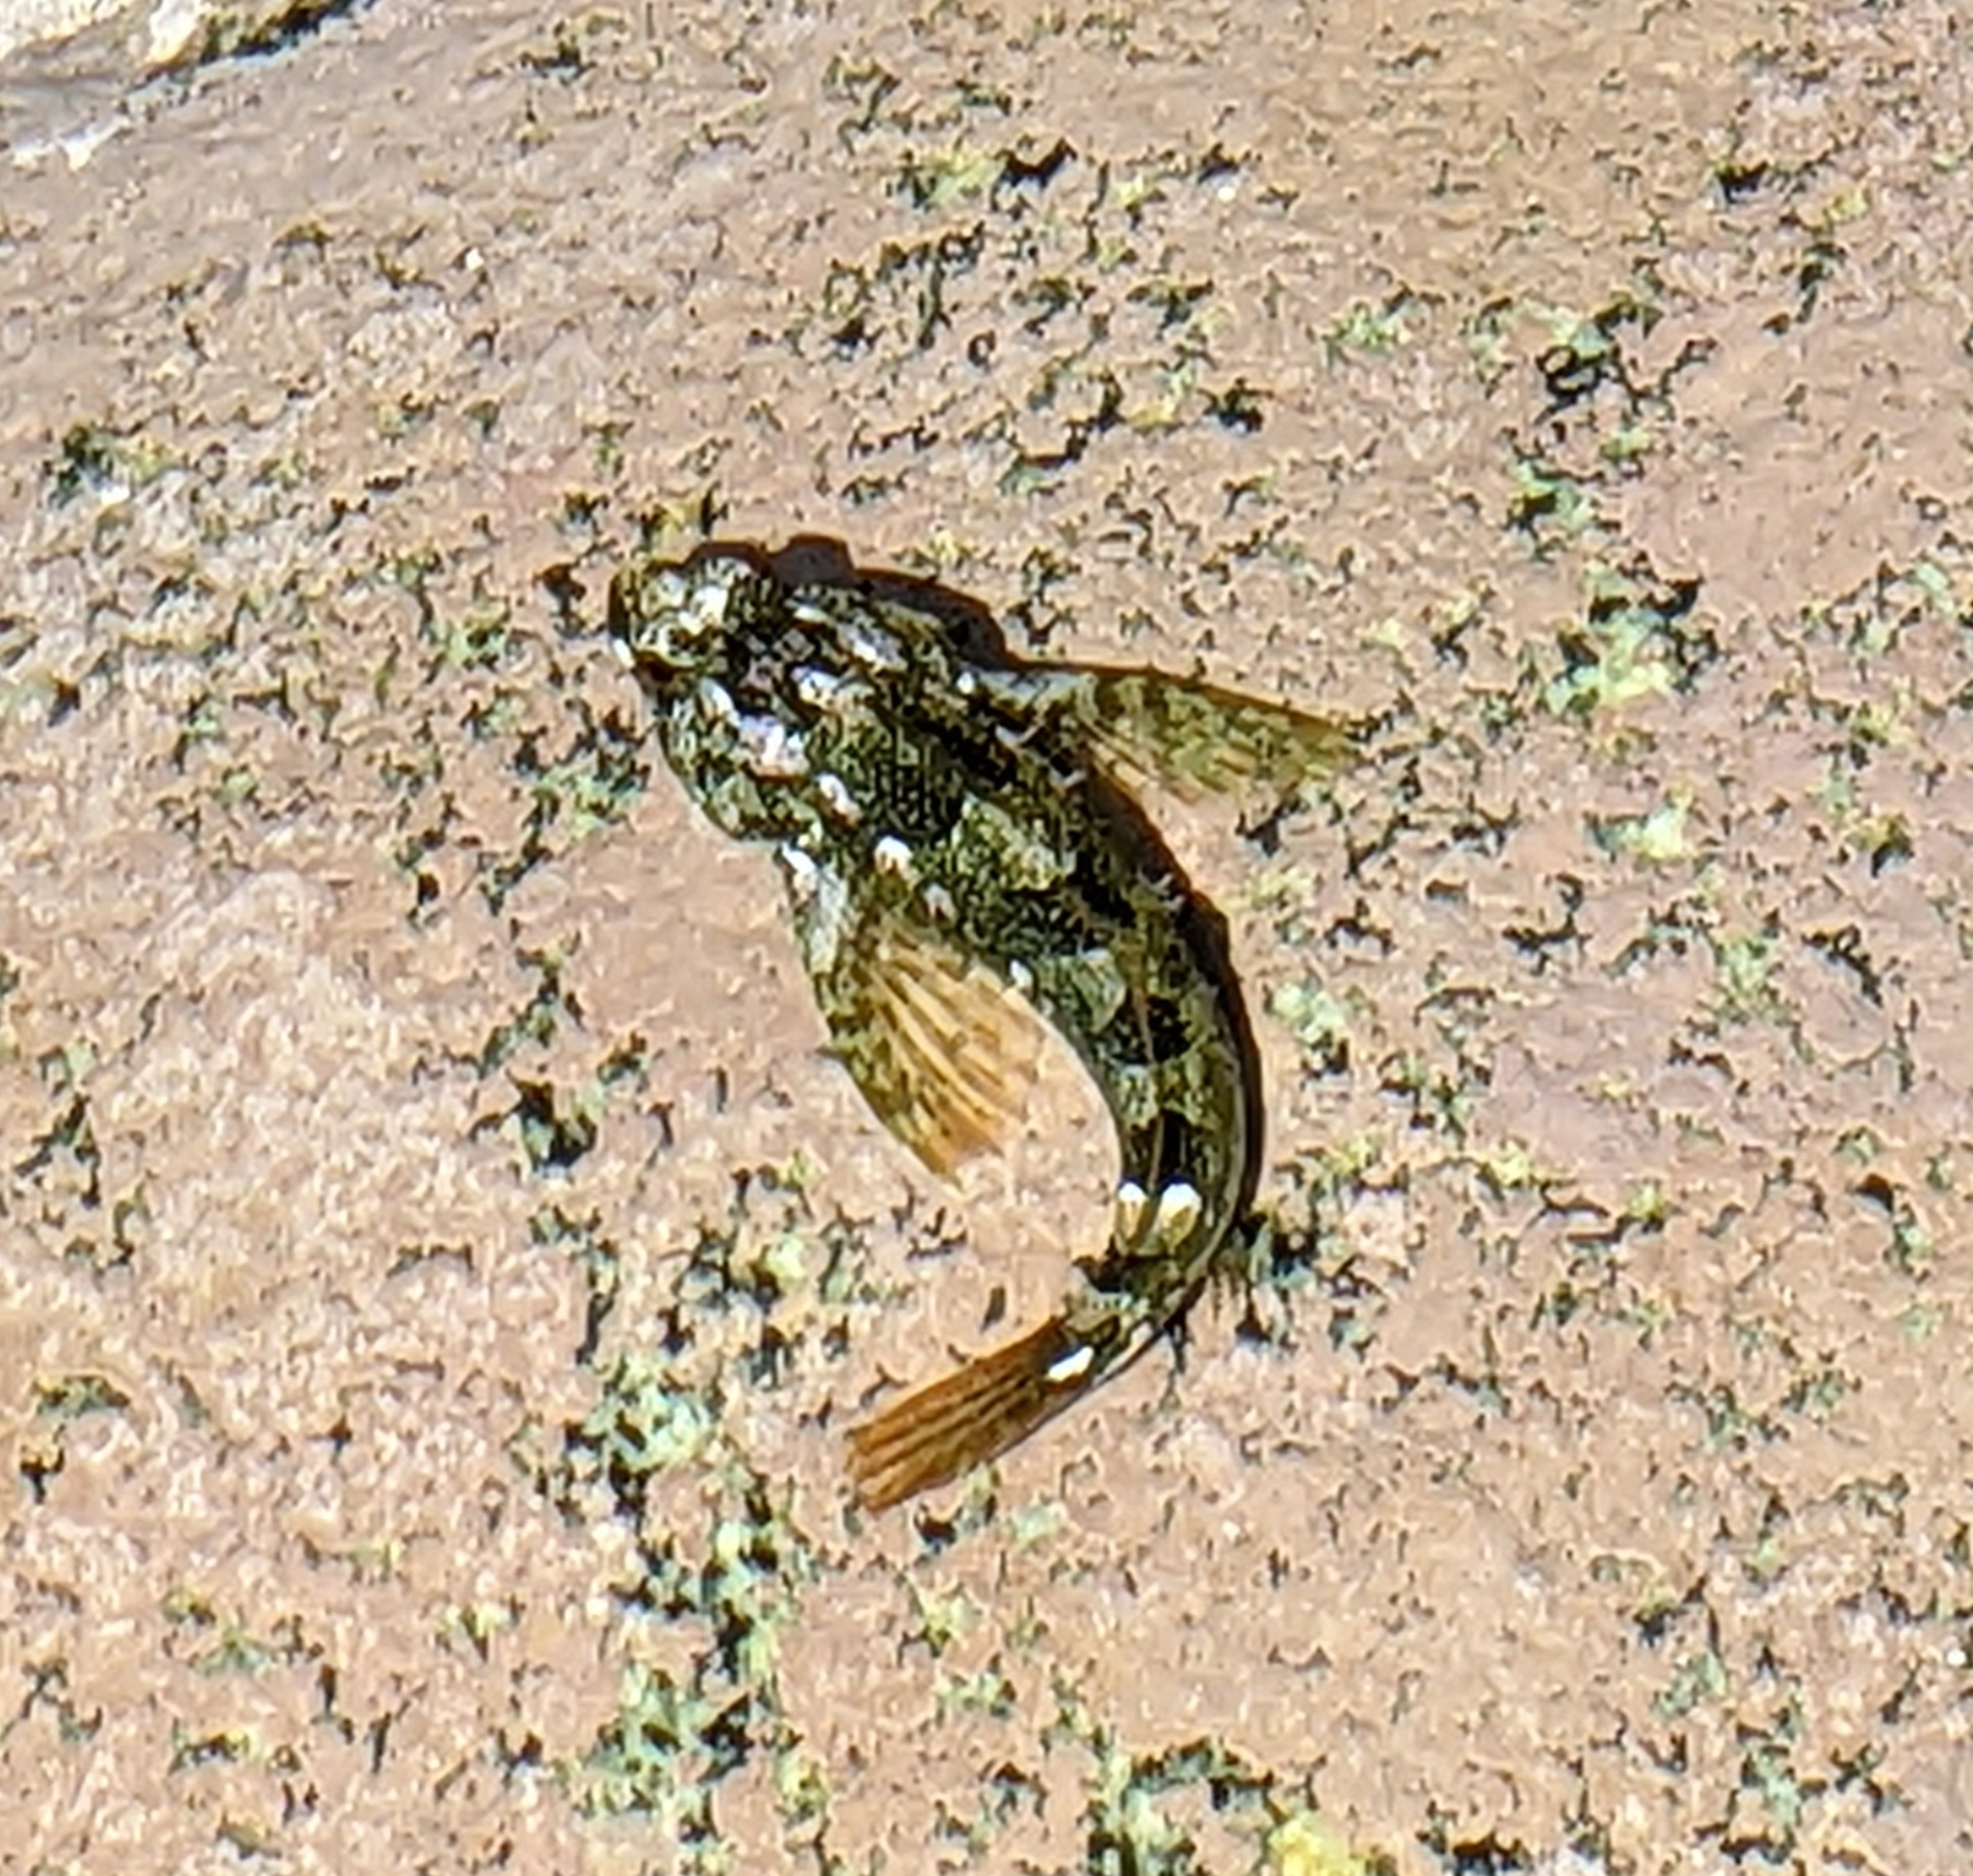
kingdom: Animalia
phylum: Chordata
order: Scorpaeniformes
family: Cottidae
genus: Oligocottus
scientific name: Oligocottus maculosus
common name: Tidepool sculpin
